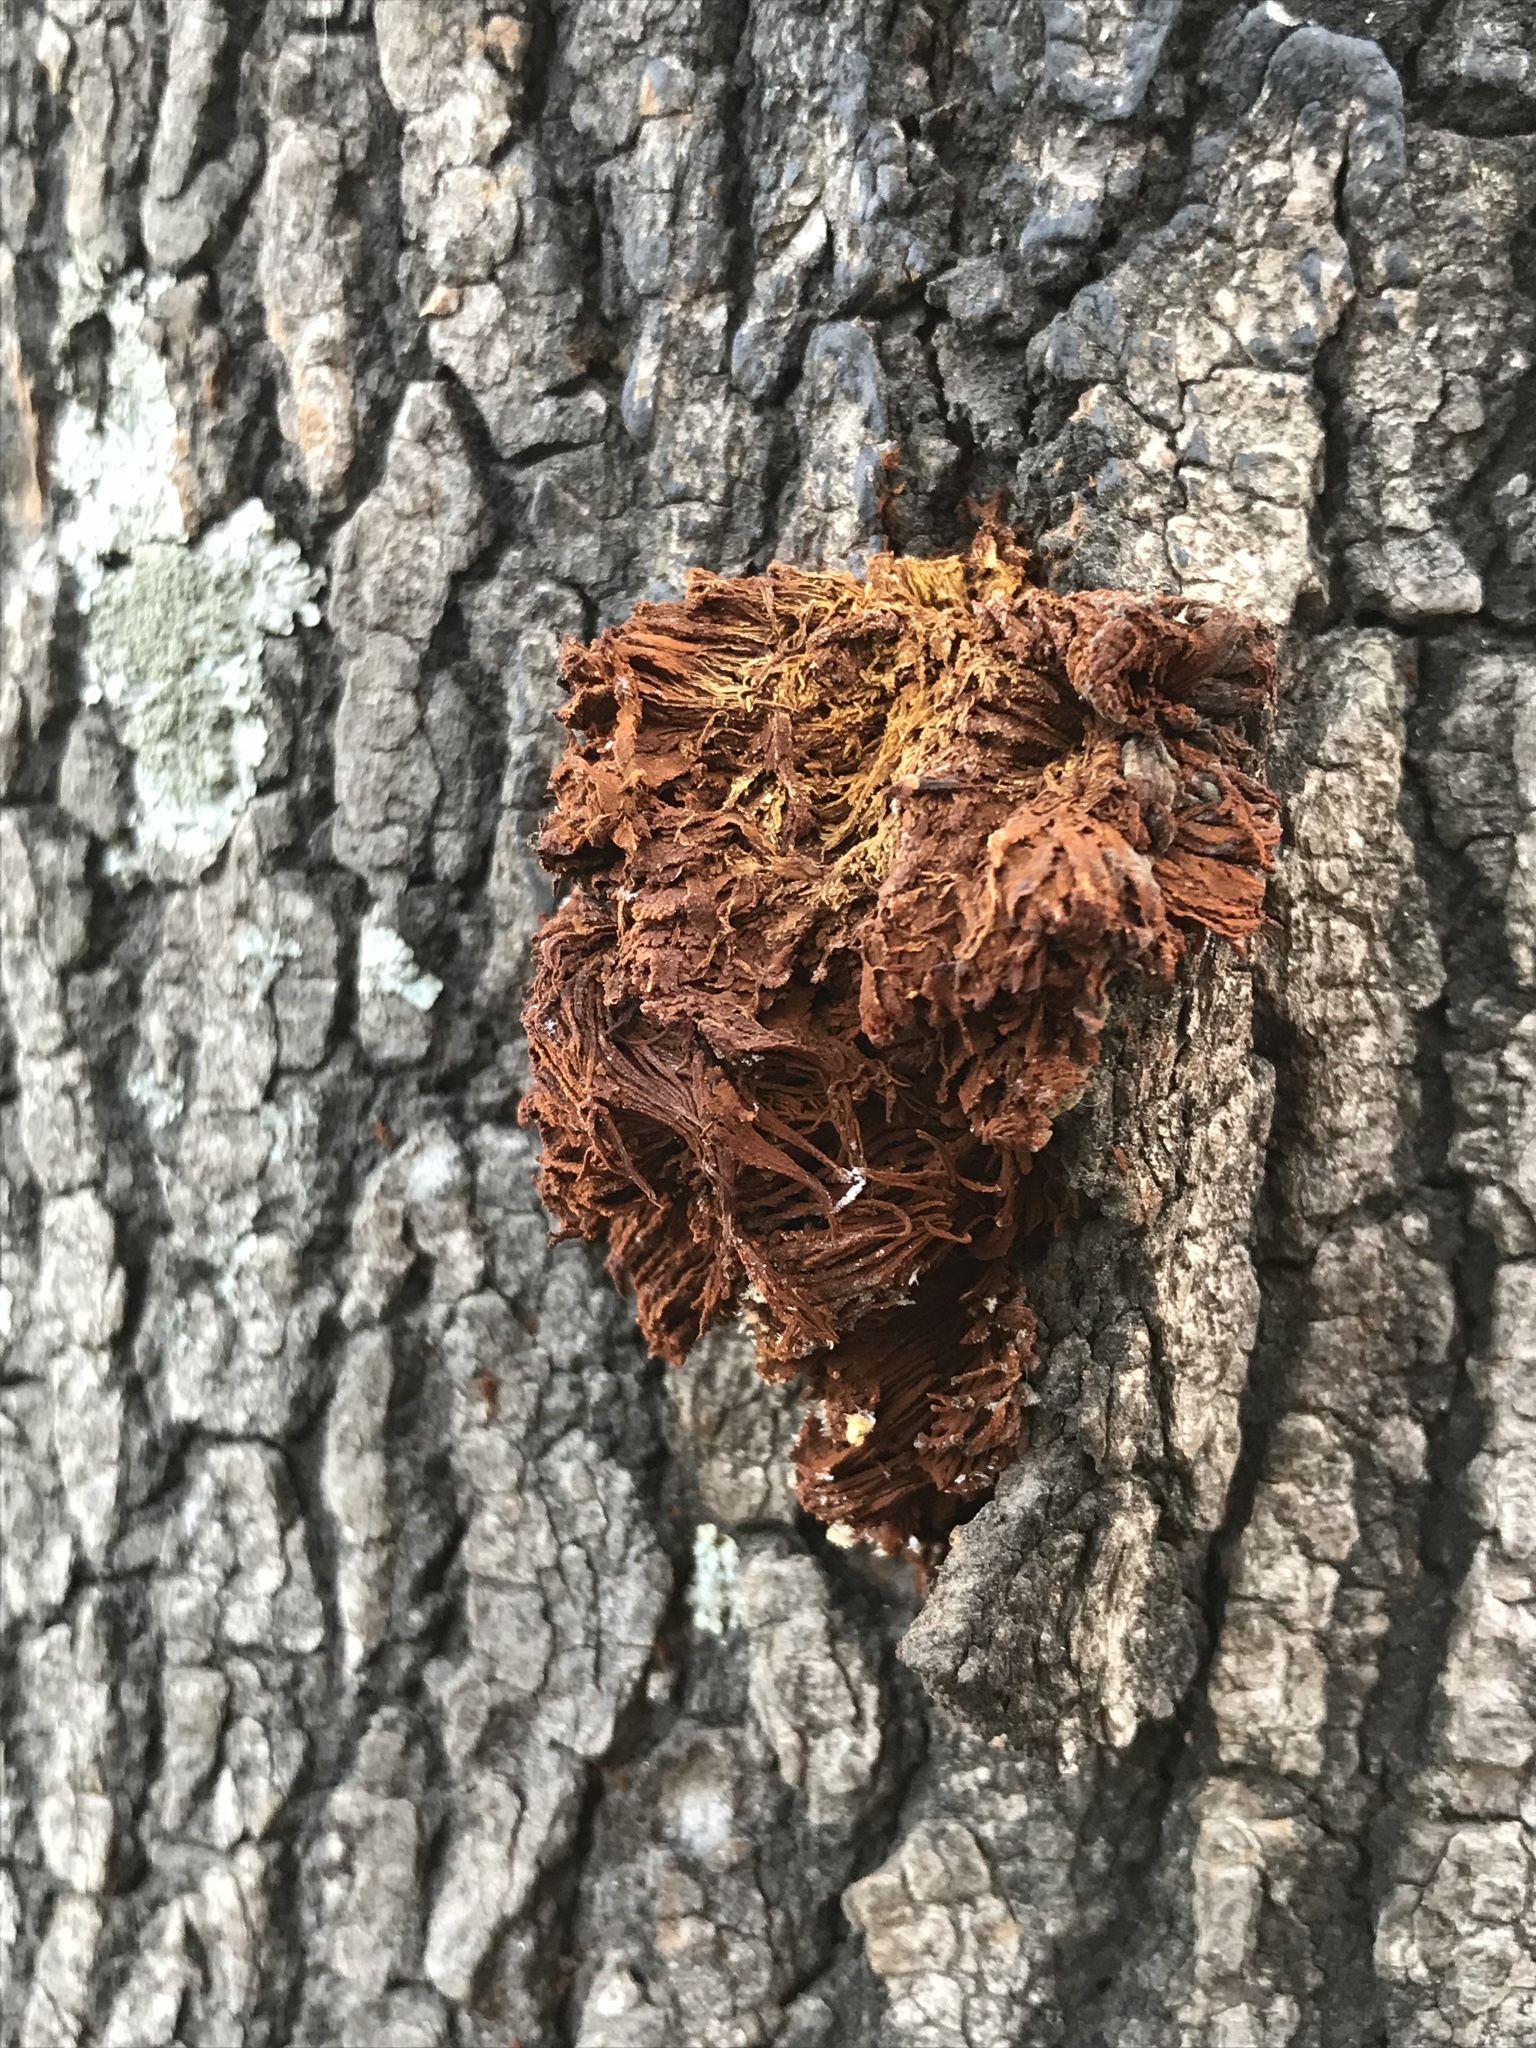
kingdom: Fungi
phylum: Basidiomycota
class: Agaricomycetes
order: Hymenochaetales
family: Hymenochaetaceae
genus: Inonotus
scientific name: Inonotus rickii
